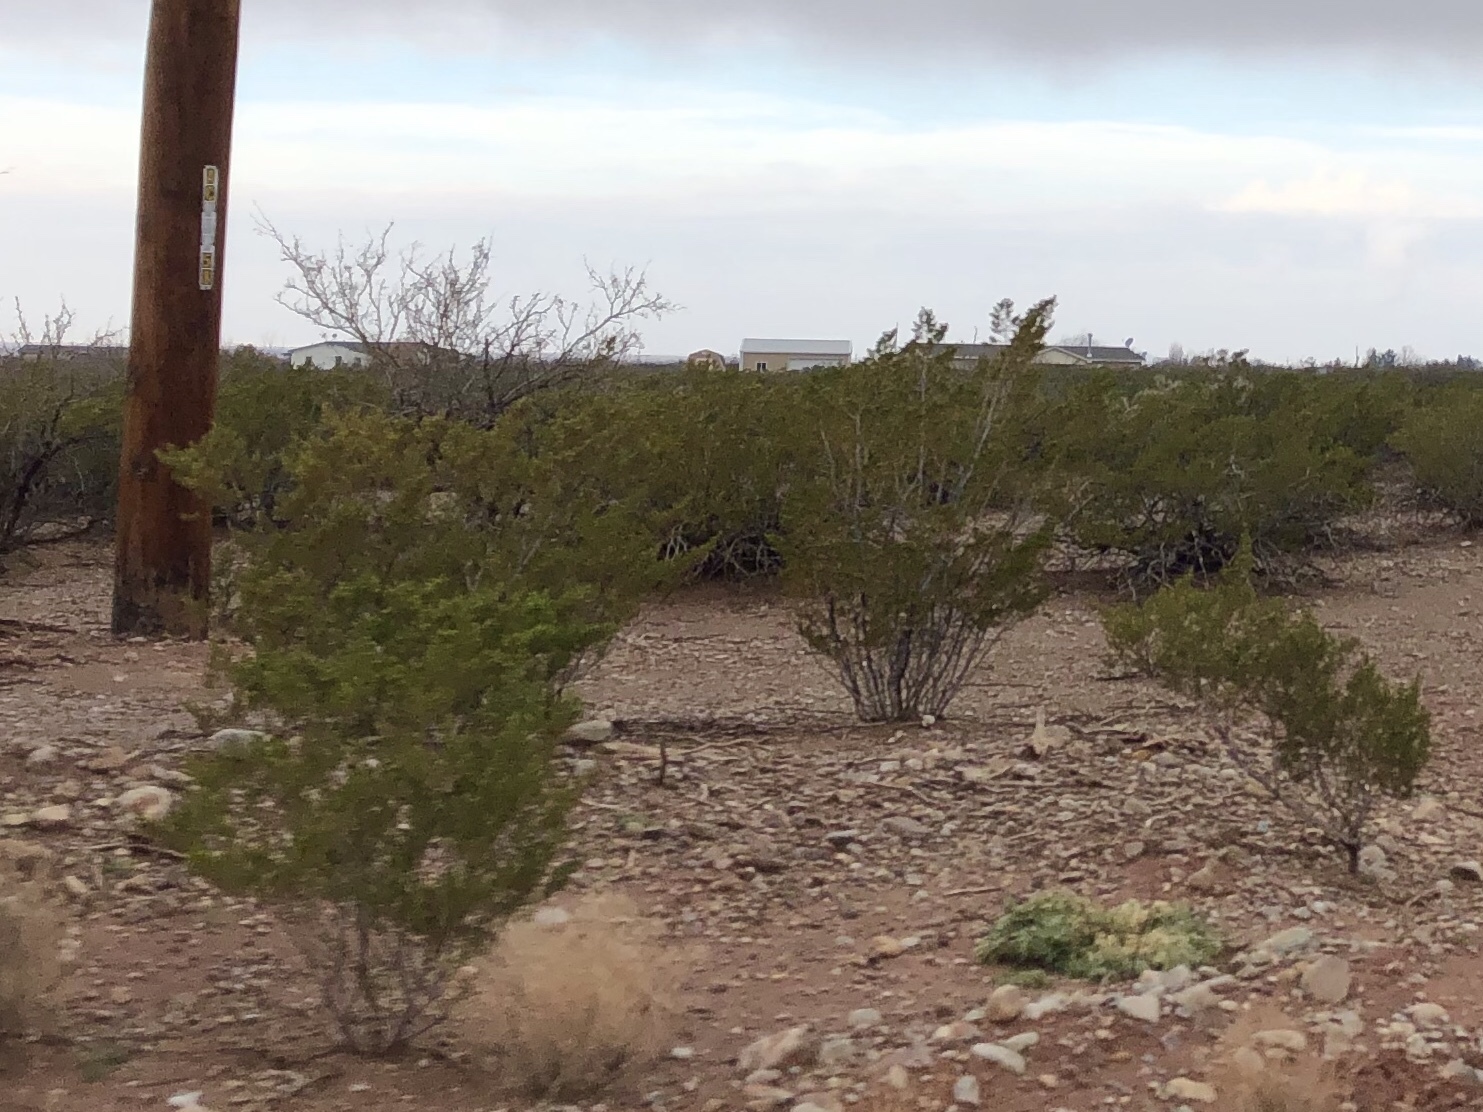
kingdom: Plantae
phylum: Tracheophyta
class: Magnoliopsida
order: Zygophyllales
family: Zygophyllaceae
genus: Larrea
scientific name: Larrea tridentata
